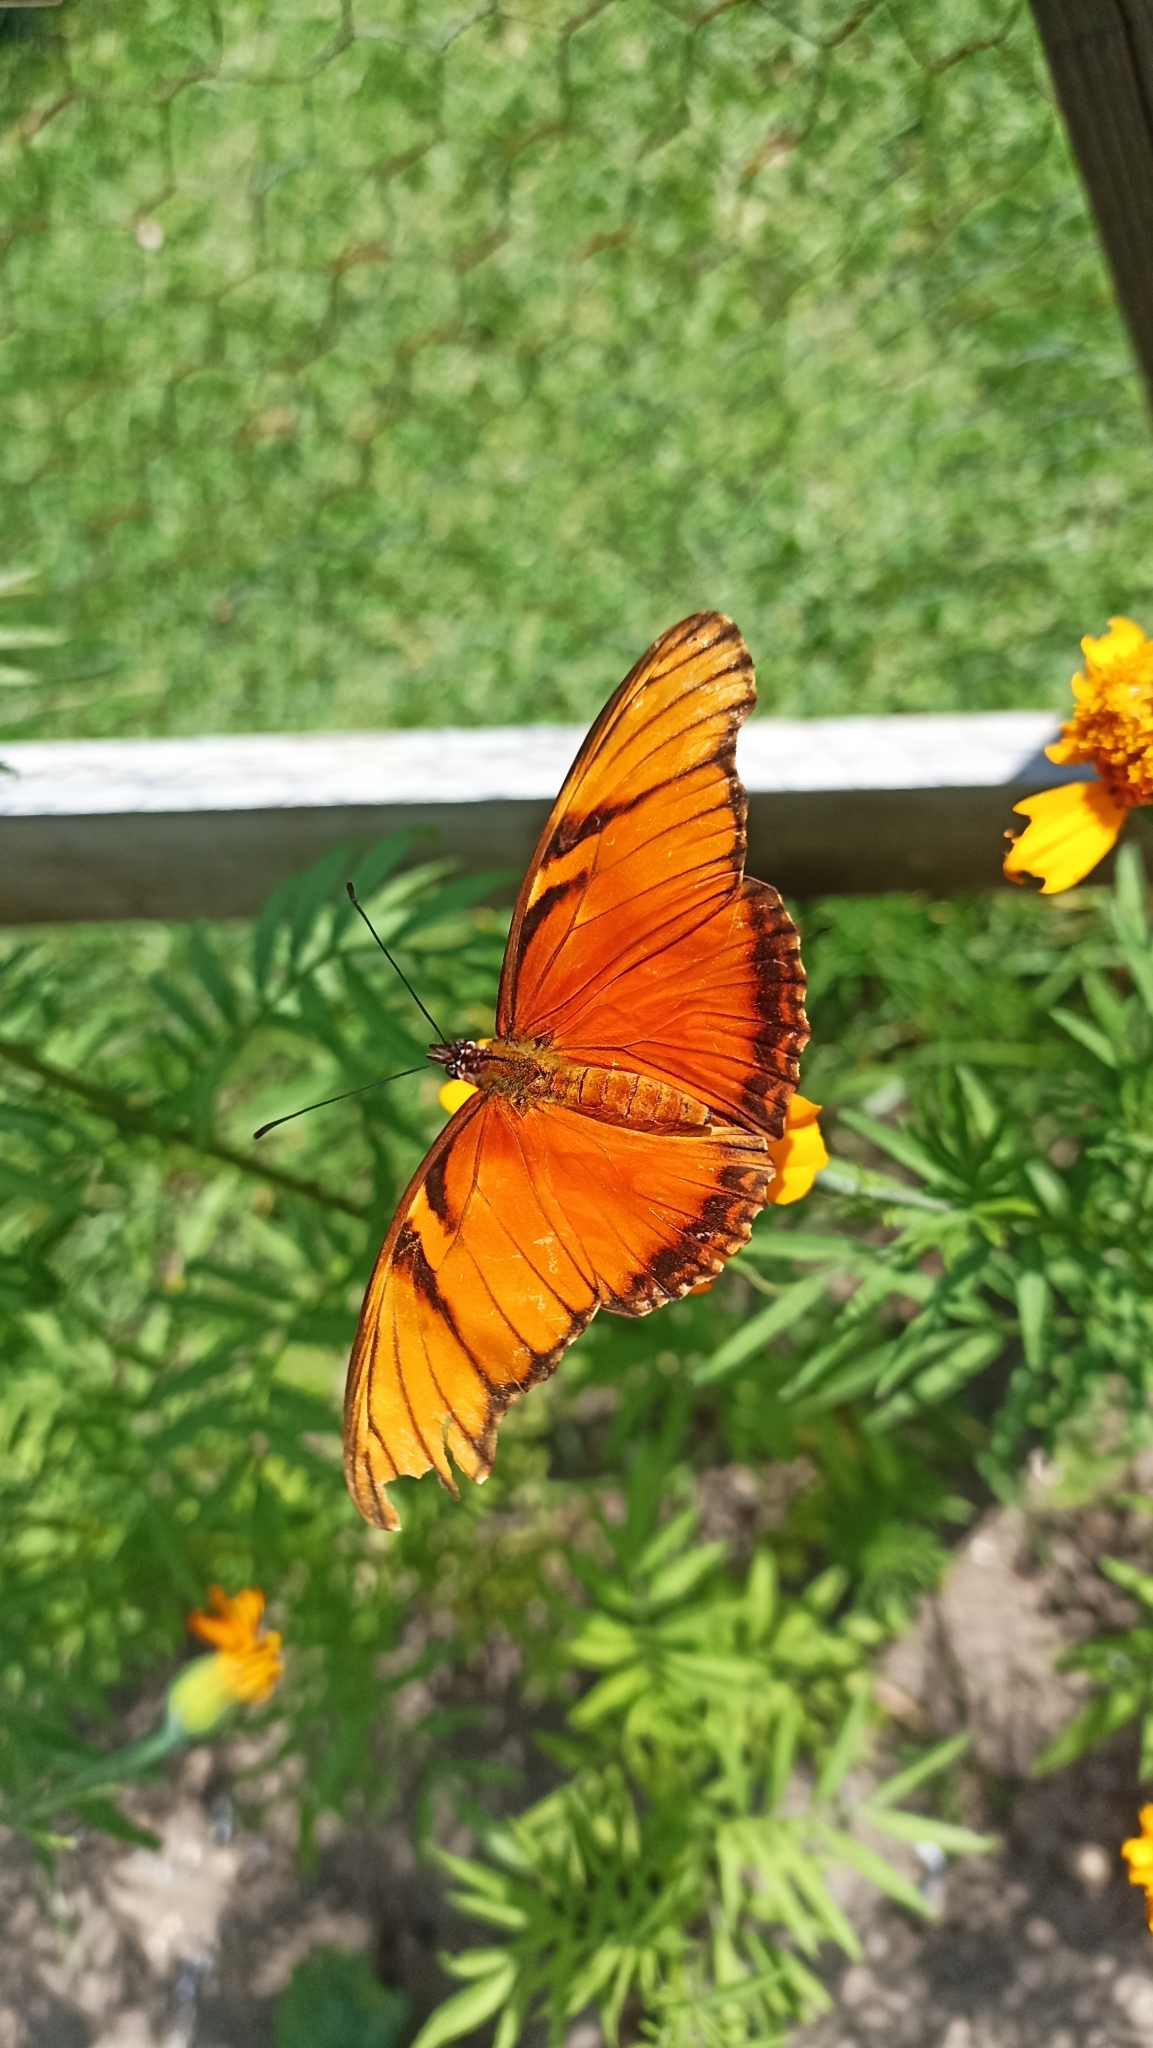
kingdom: Animalia
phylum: Arthropoda
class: Insecta
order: Lepidoptera
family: Nymphalidae
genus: Dione
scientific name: Dione juno
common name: Juno silverspot
